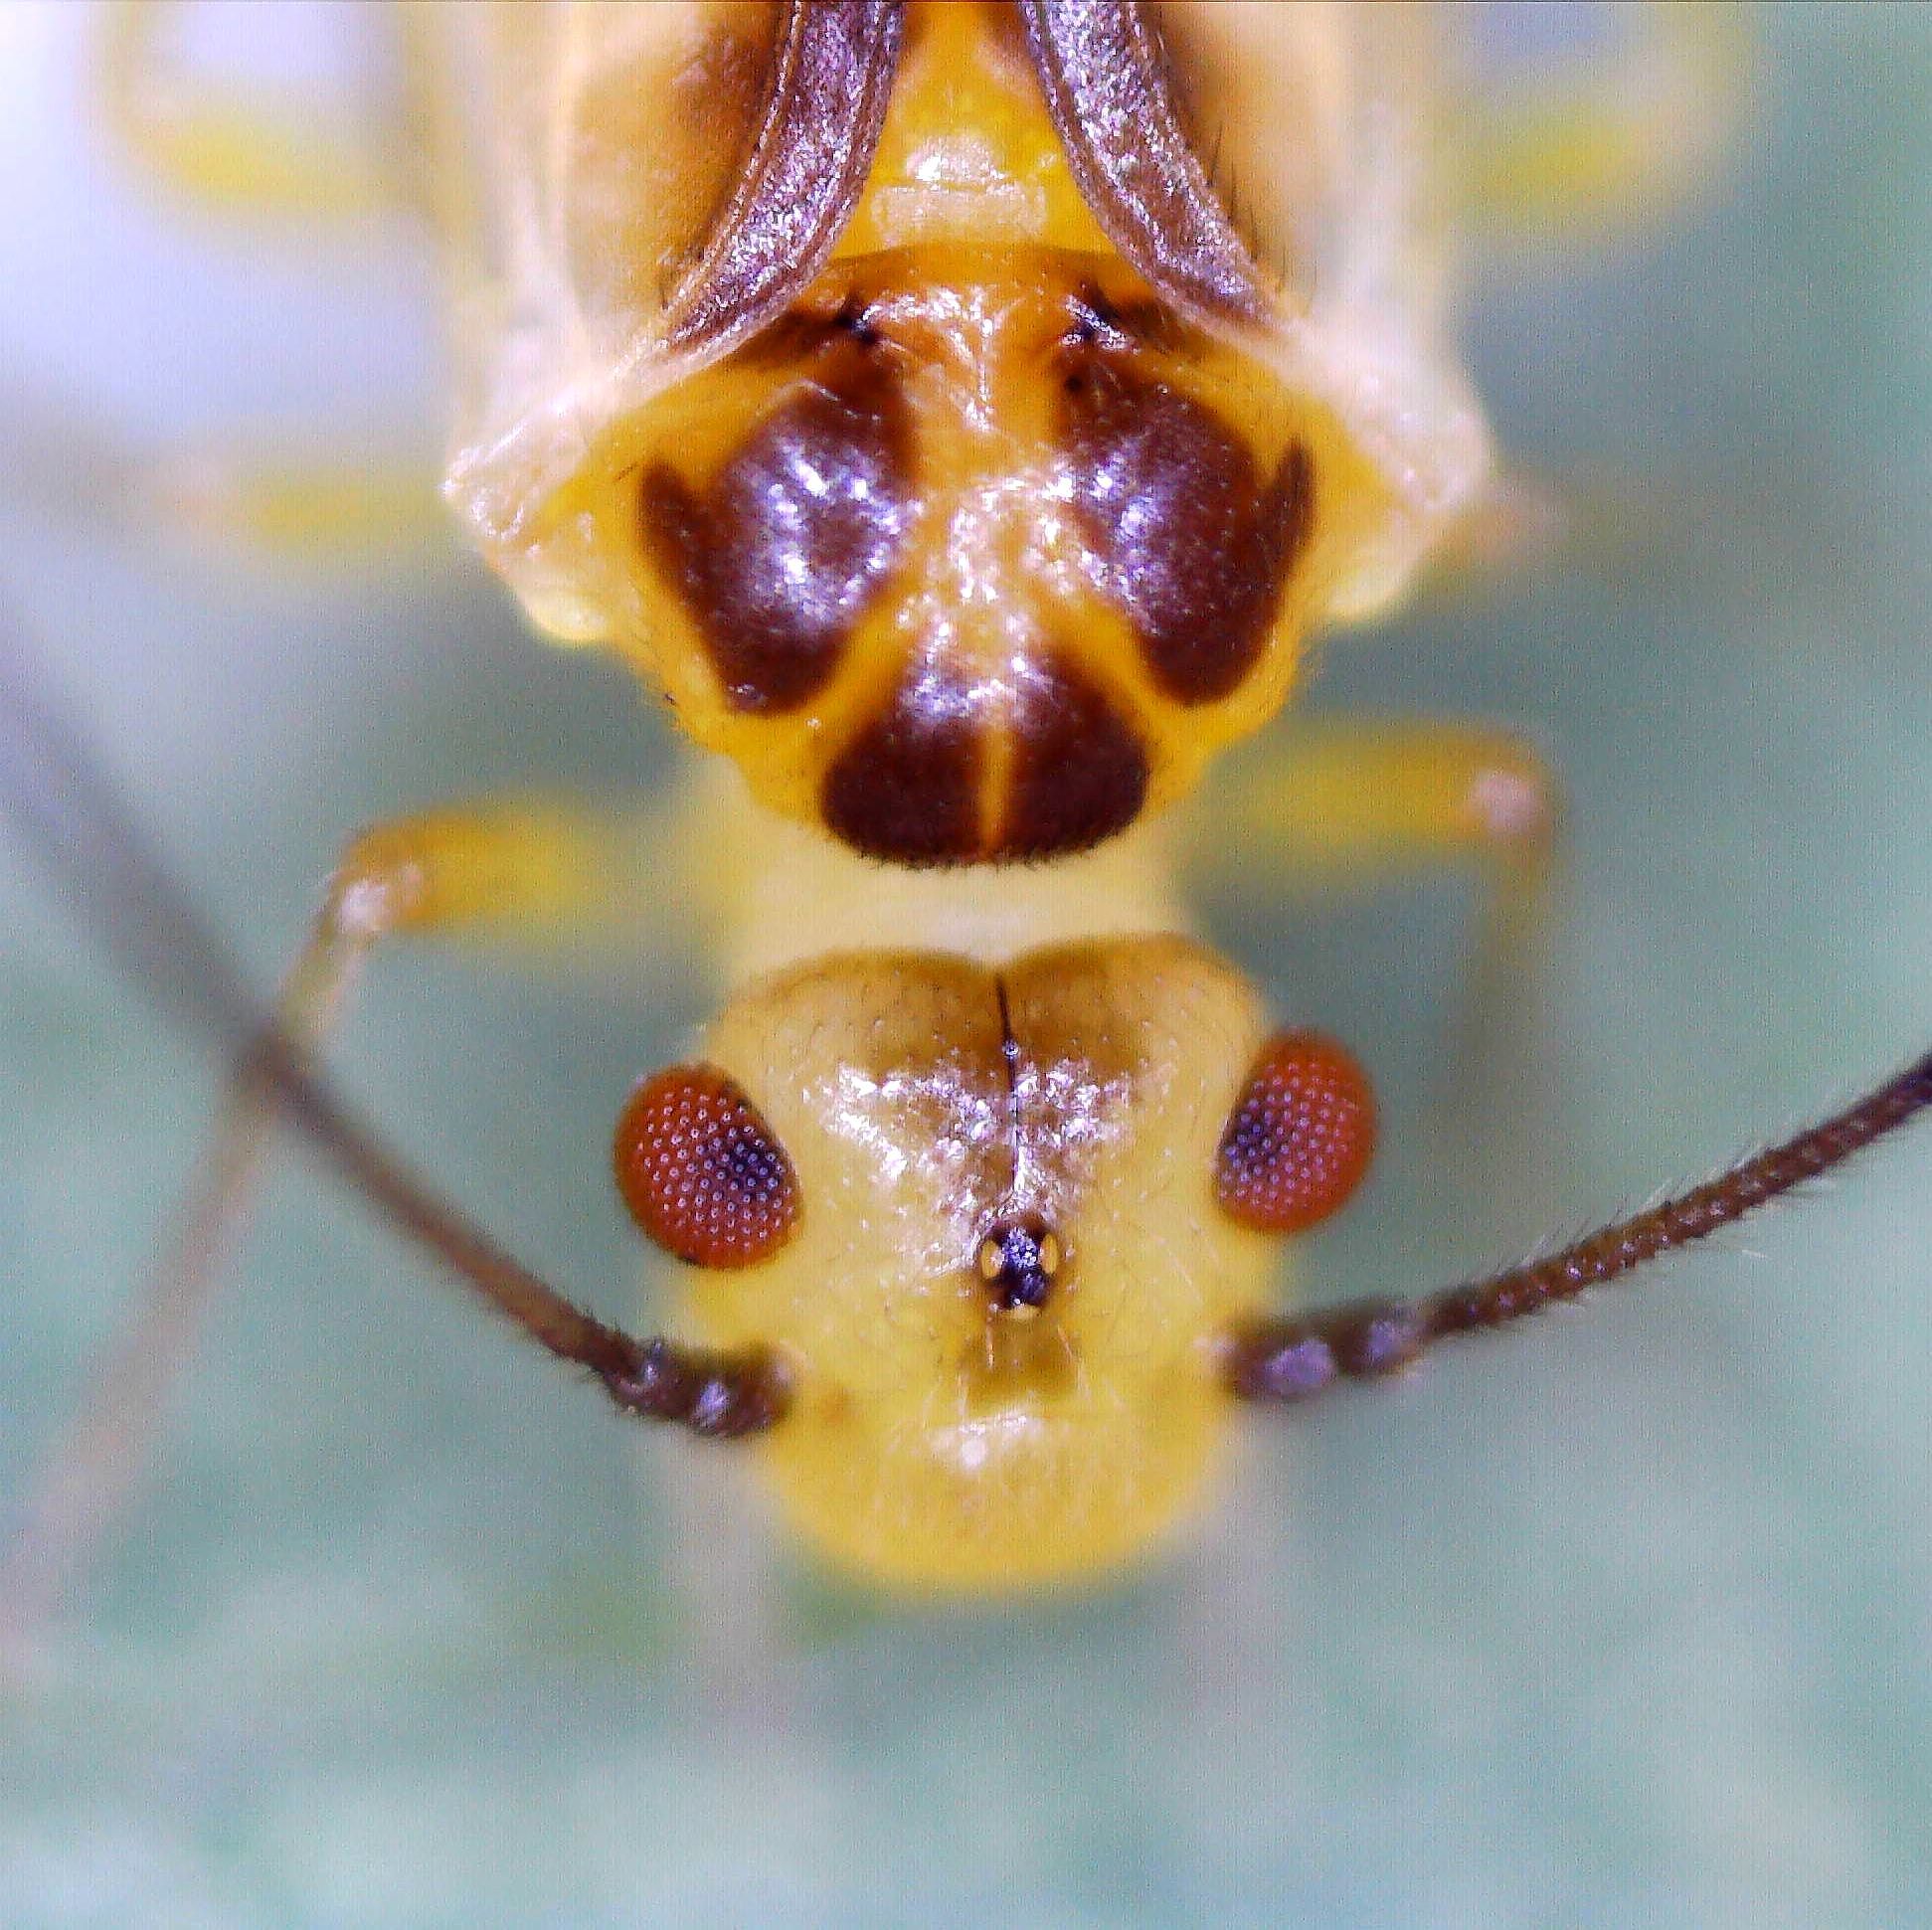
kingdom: Animalia
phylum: Arthropoda
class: Insecta
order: Psocodea
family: Caeciliusidae
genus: Valenzuela
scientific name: Valenzuela flavidus
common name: Yellow barklouse
